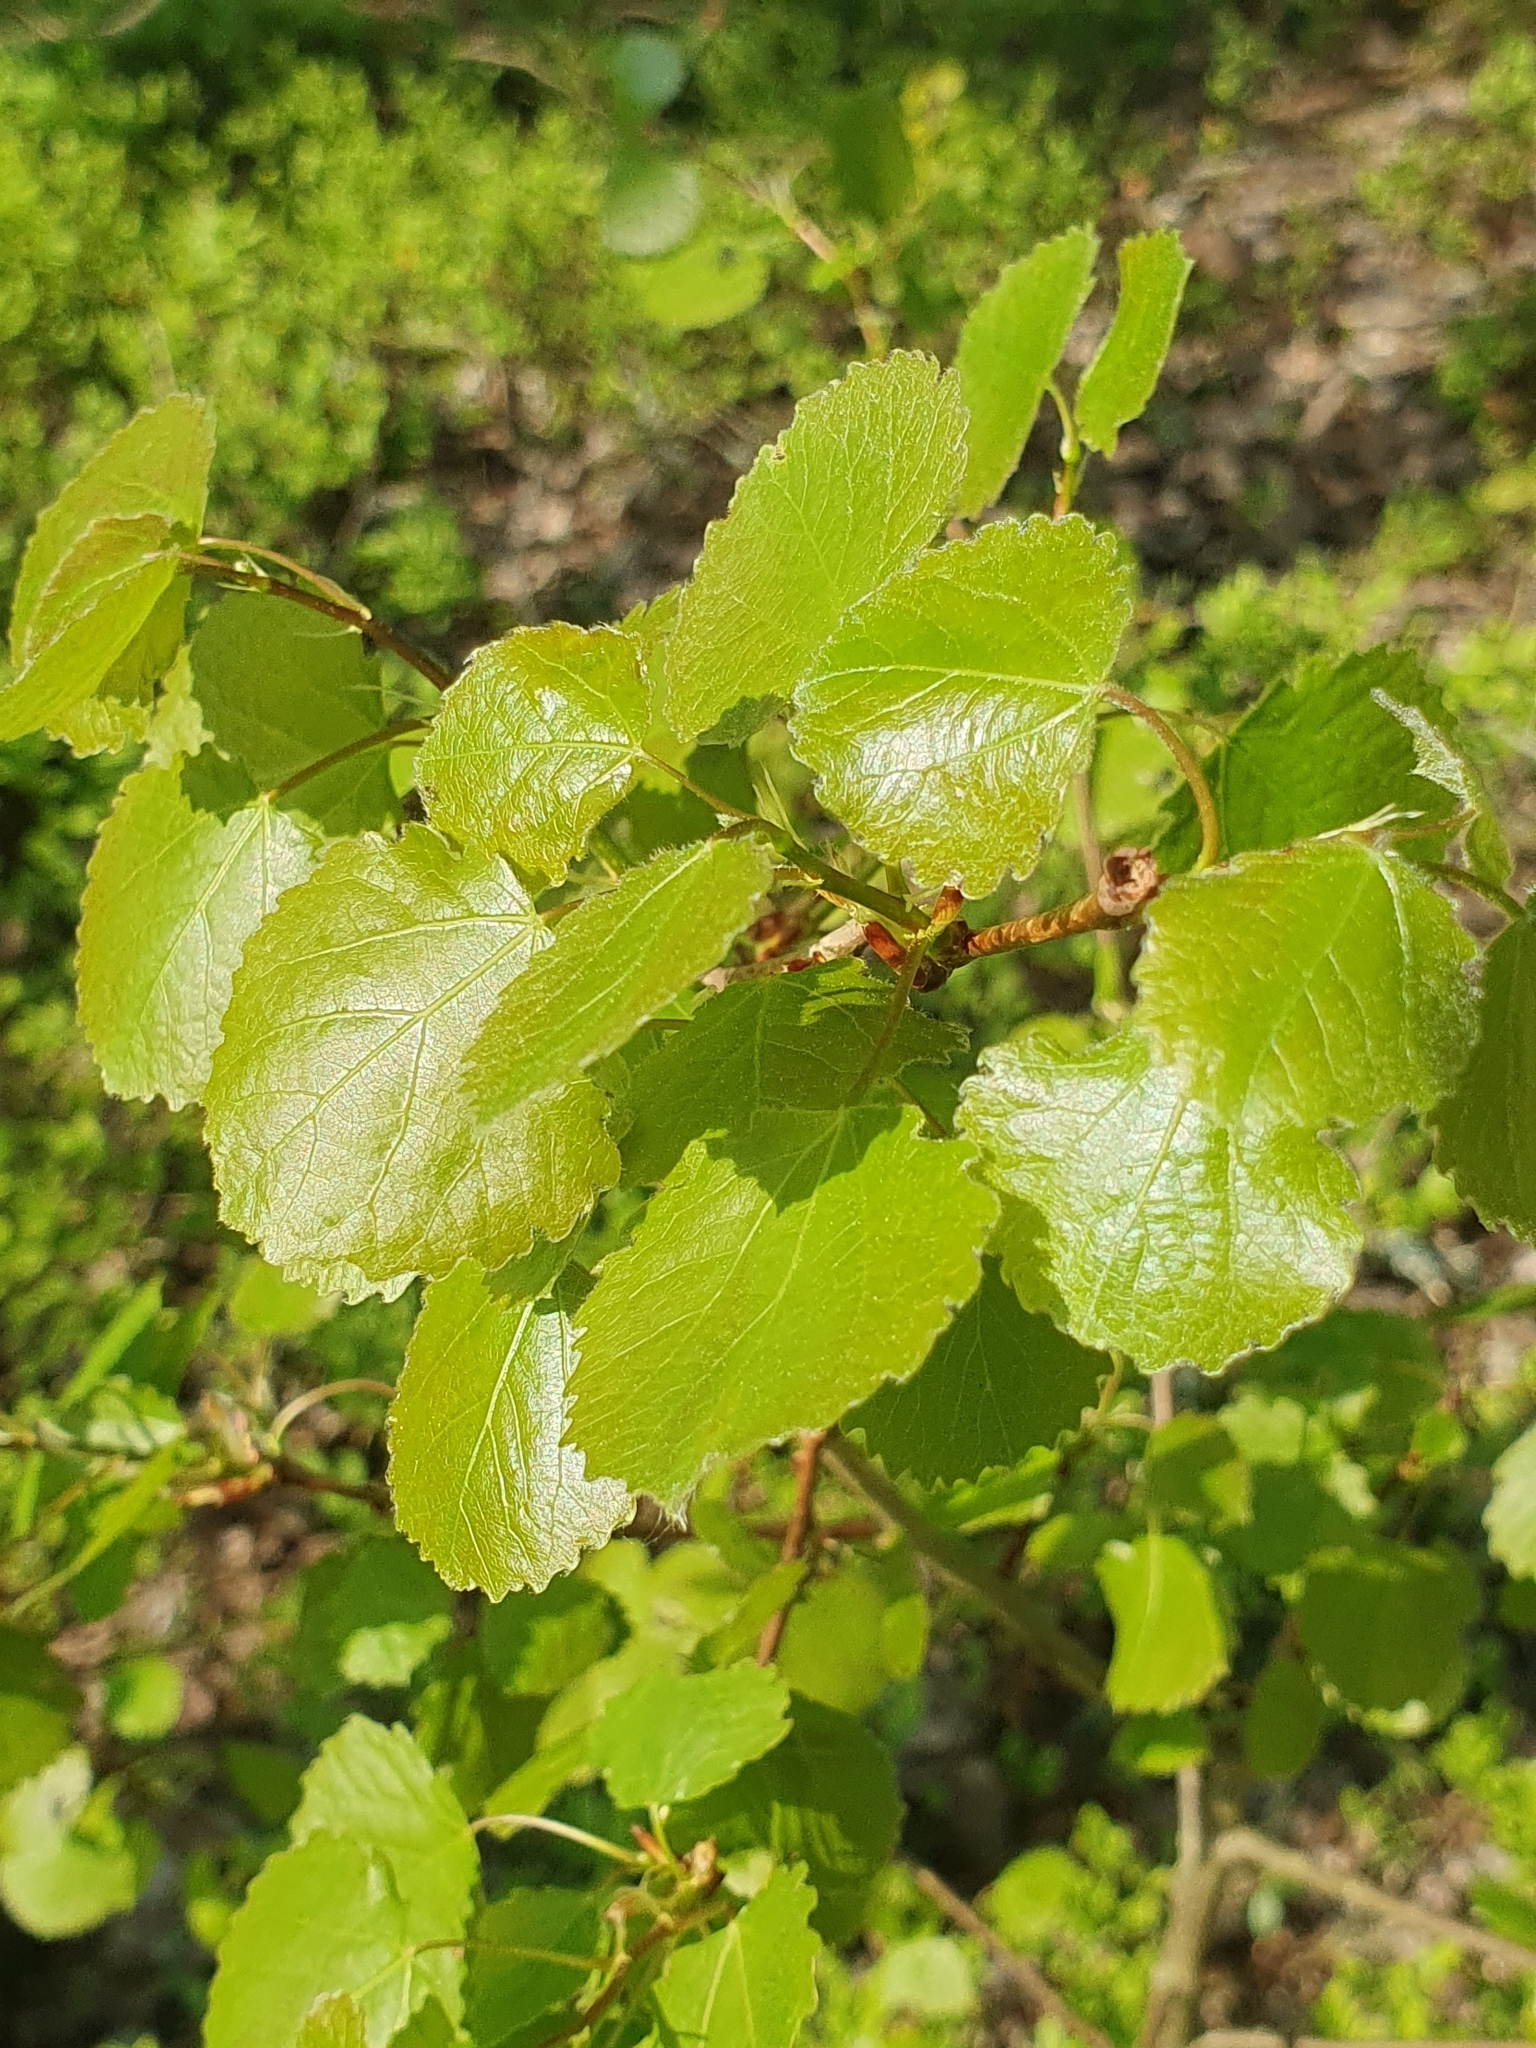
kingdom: Plantae
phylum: Tracheophyta
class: Magnoliopsida
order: Malpighiales
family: Salicaceae
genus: Populus
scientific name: Populus tremula
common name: European aspen
